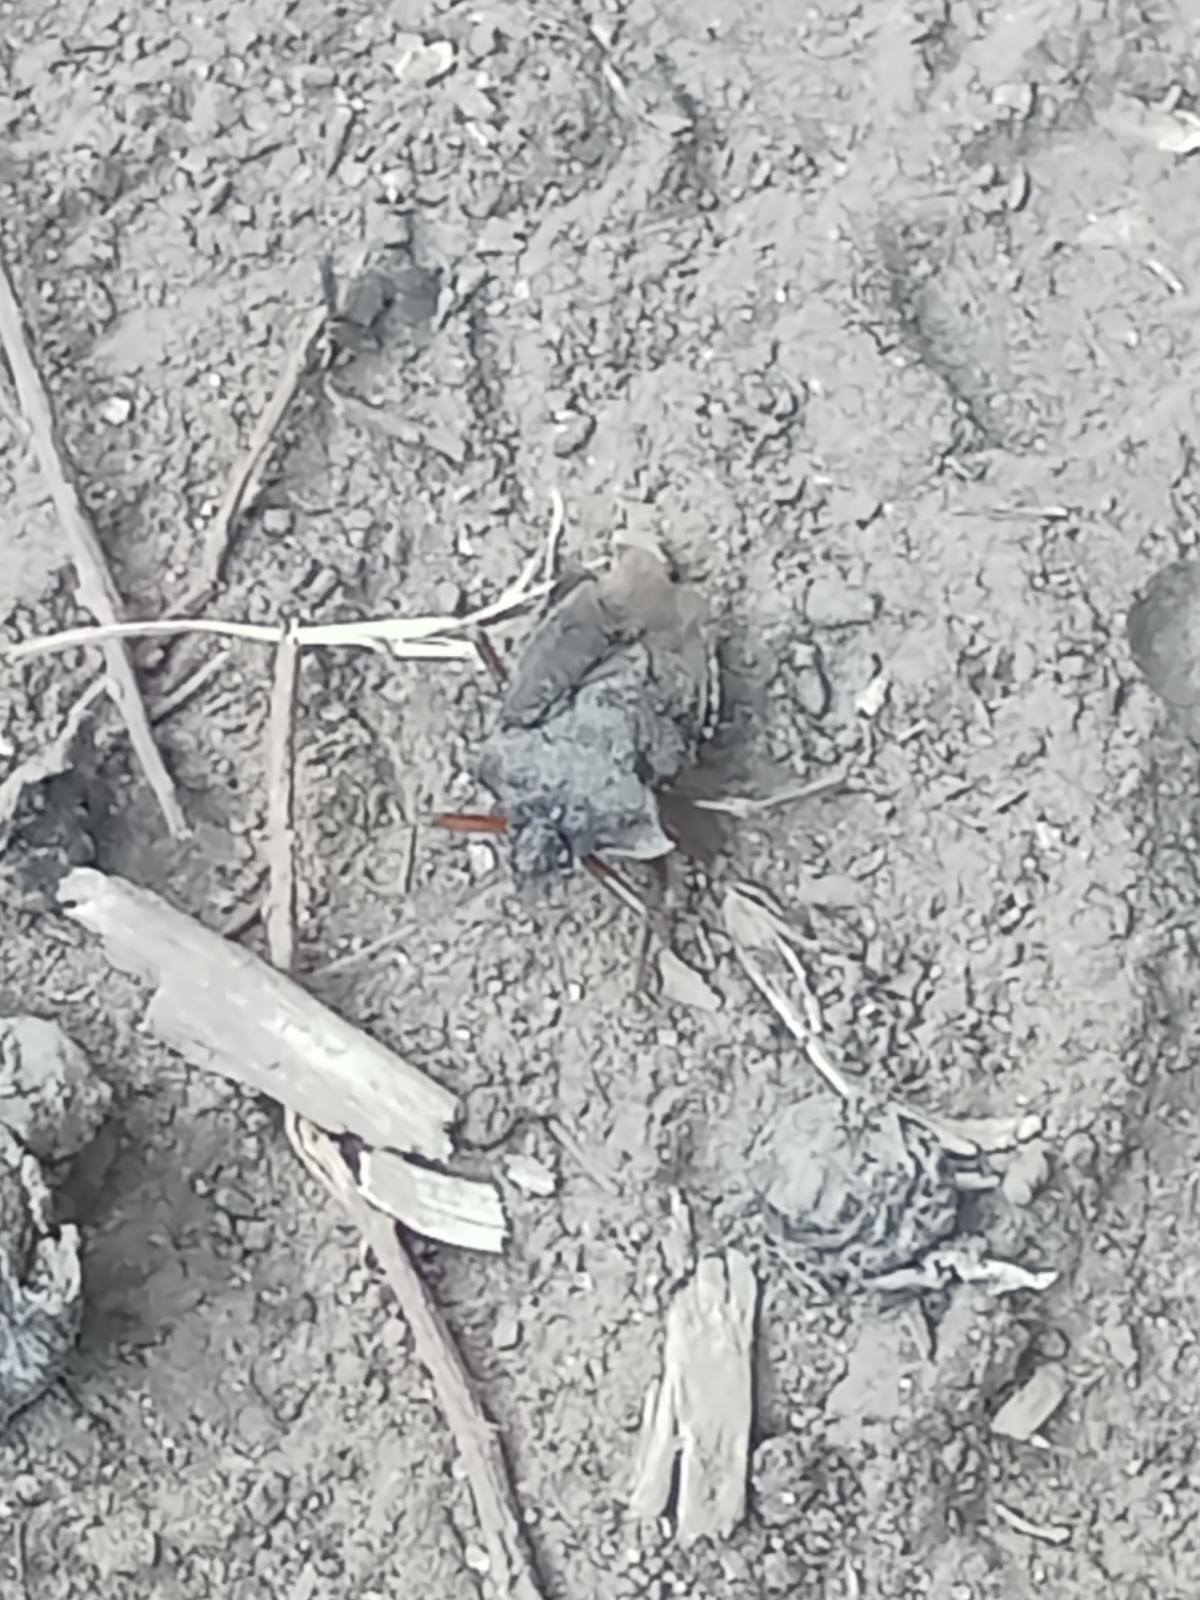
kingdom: Animalia
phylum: Arthropoda
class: Insecta
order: Hemiptera
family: Pentatomidae
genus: Pentatoma
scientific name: Pentatoma rufipes
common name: Forest bug
